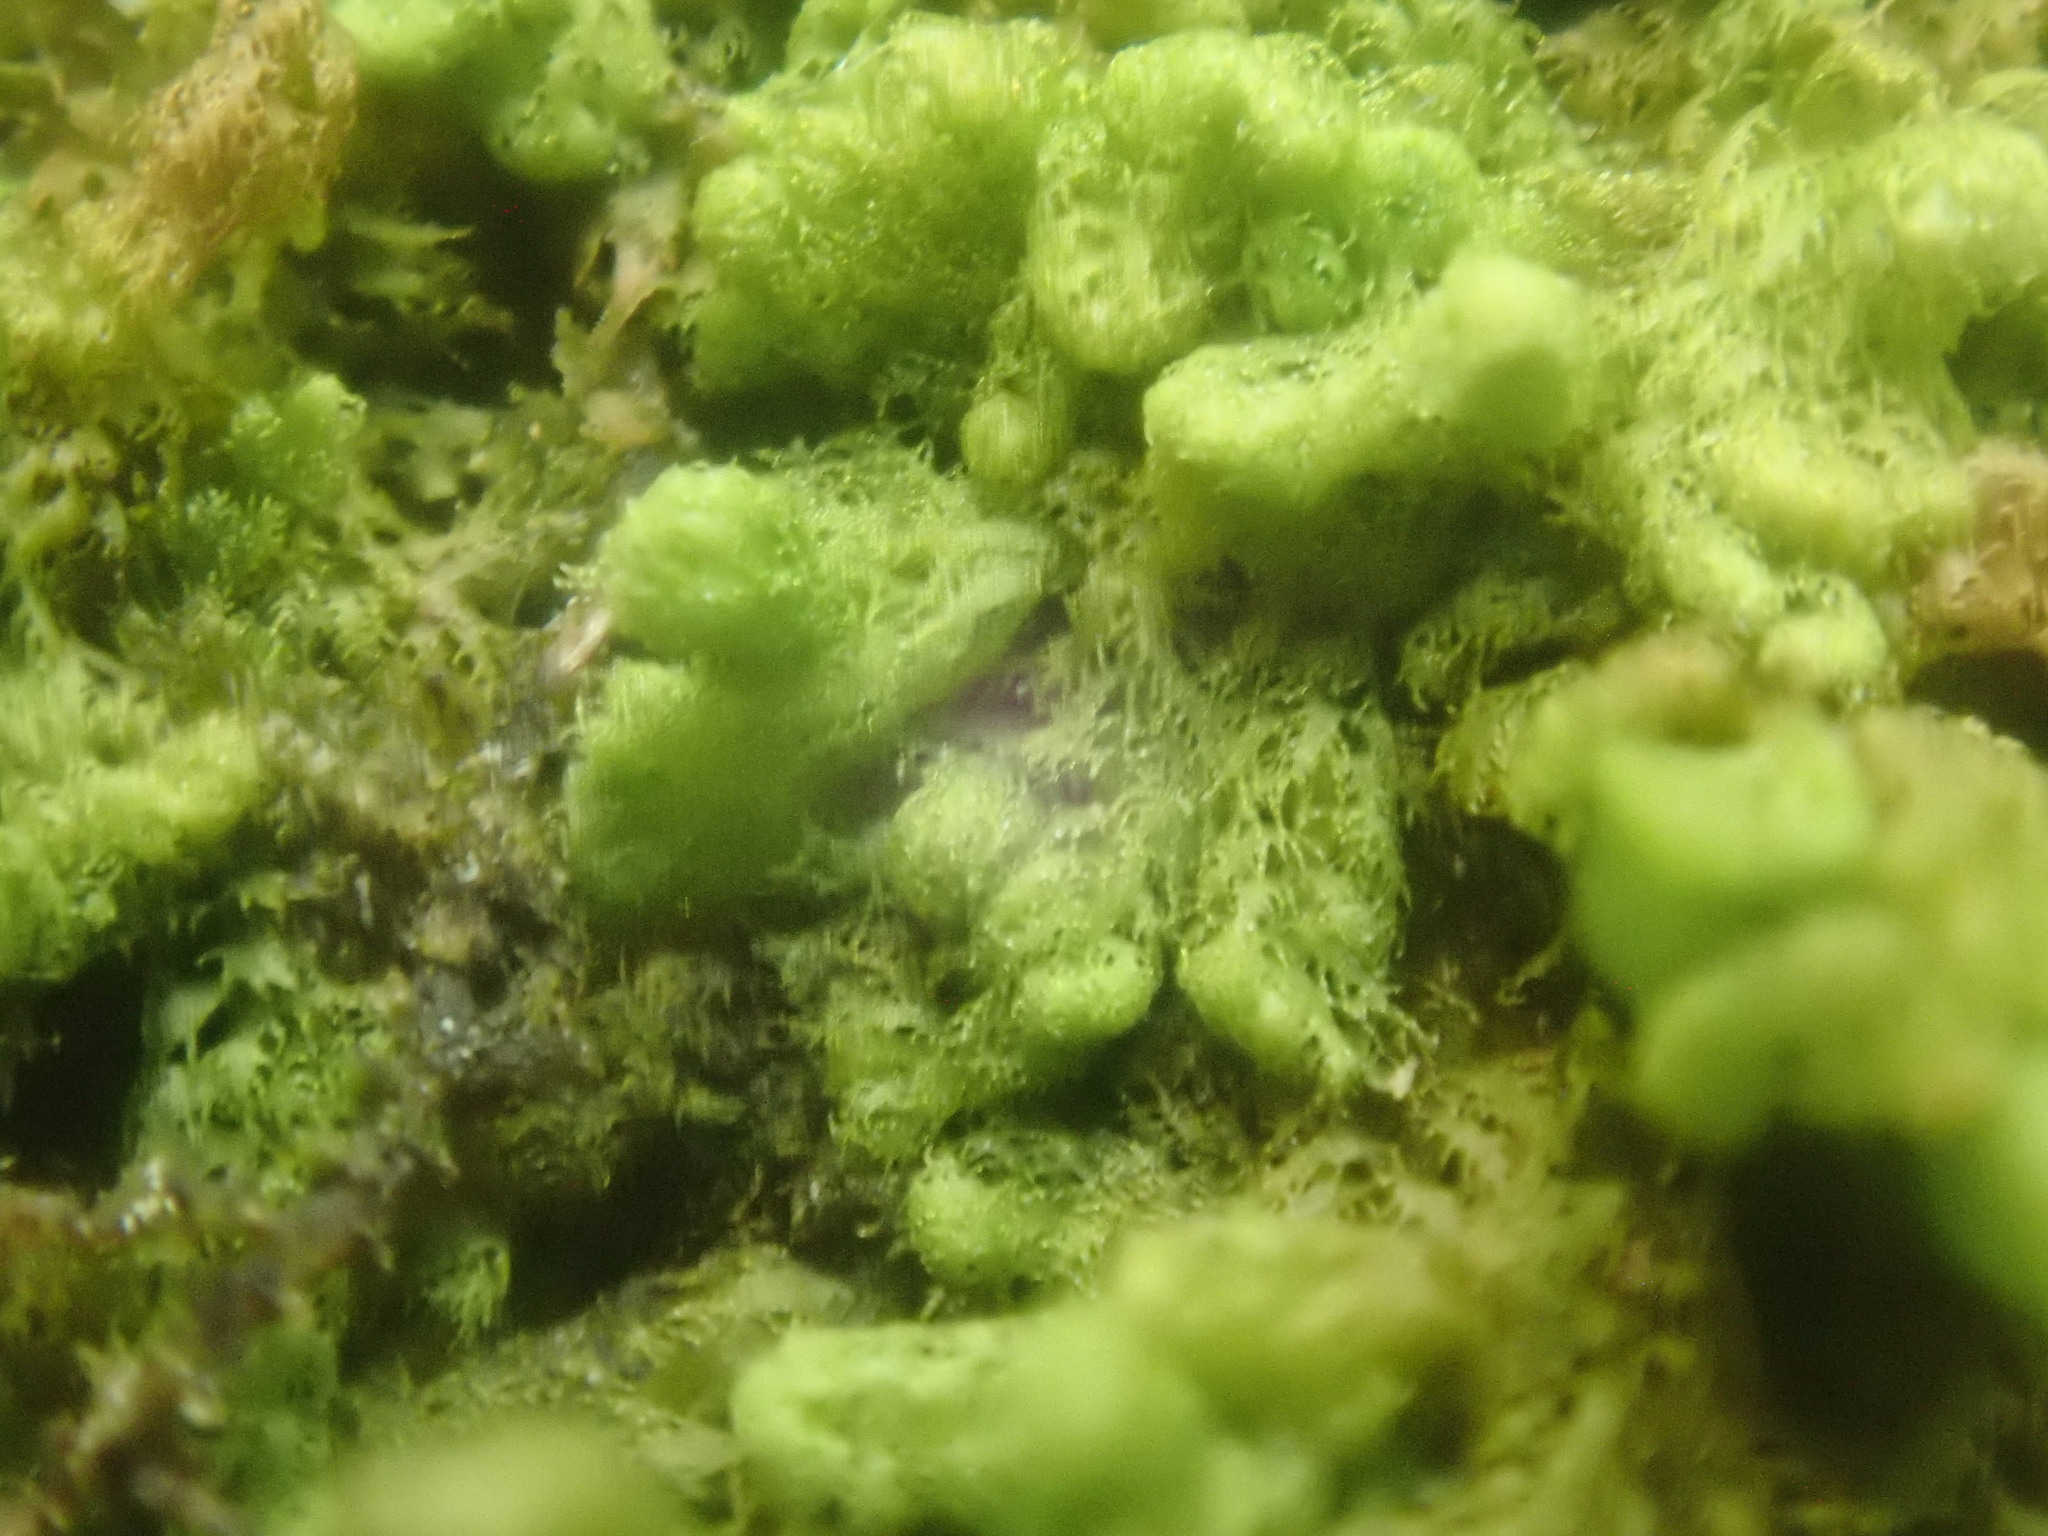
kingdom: Plantae
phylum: Marchantiophyta
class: Jungermanniopsida
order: Ptilidiales
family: Ptilidiaceae
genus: Ptilidium
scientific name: Ptilidium pulcherrimum
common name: Tree fringewort
